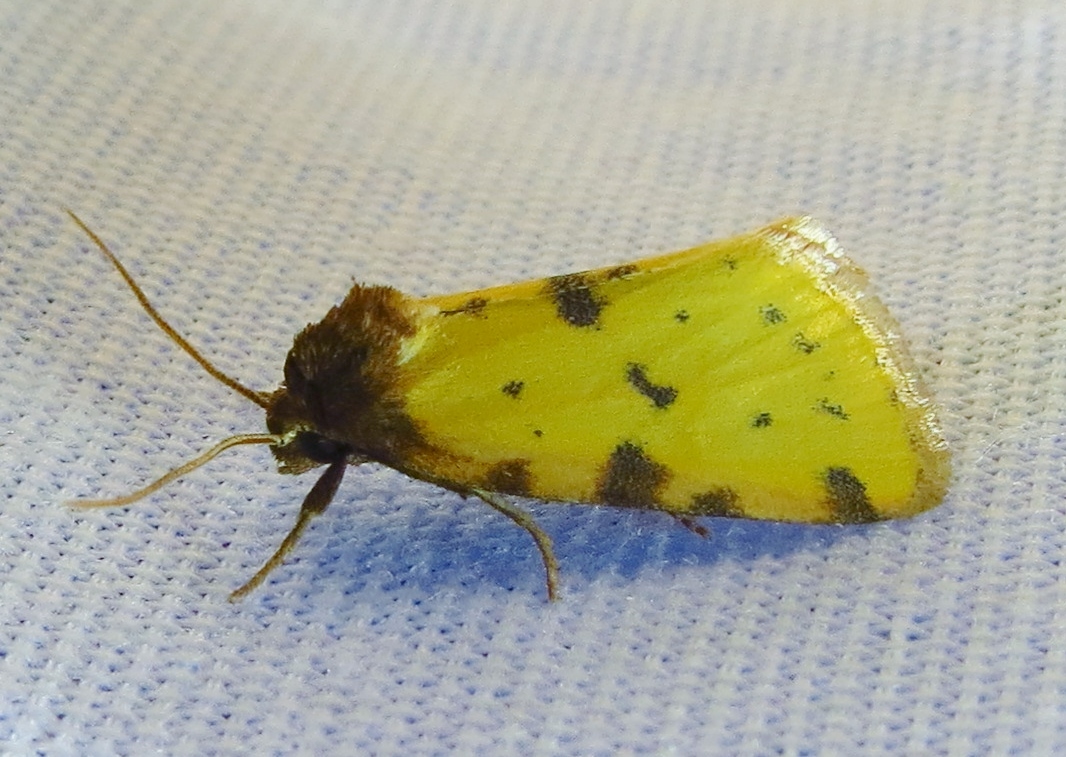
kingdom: Animalia
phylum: Arthropoda
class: Insecta
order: Lepidoptera
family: Noctuidae
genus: Azenia
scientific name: Azenia obtusa
